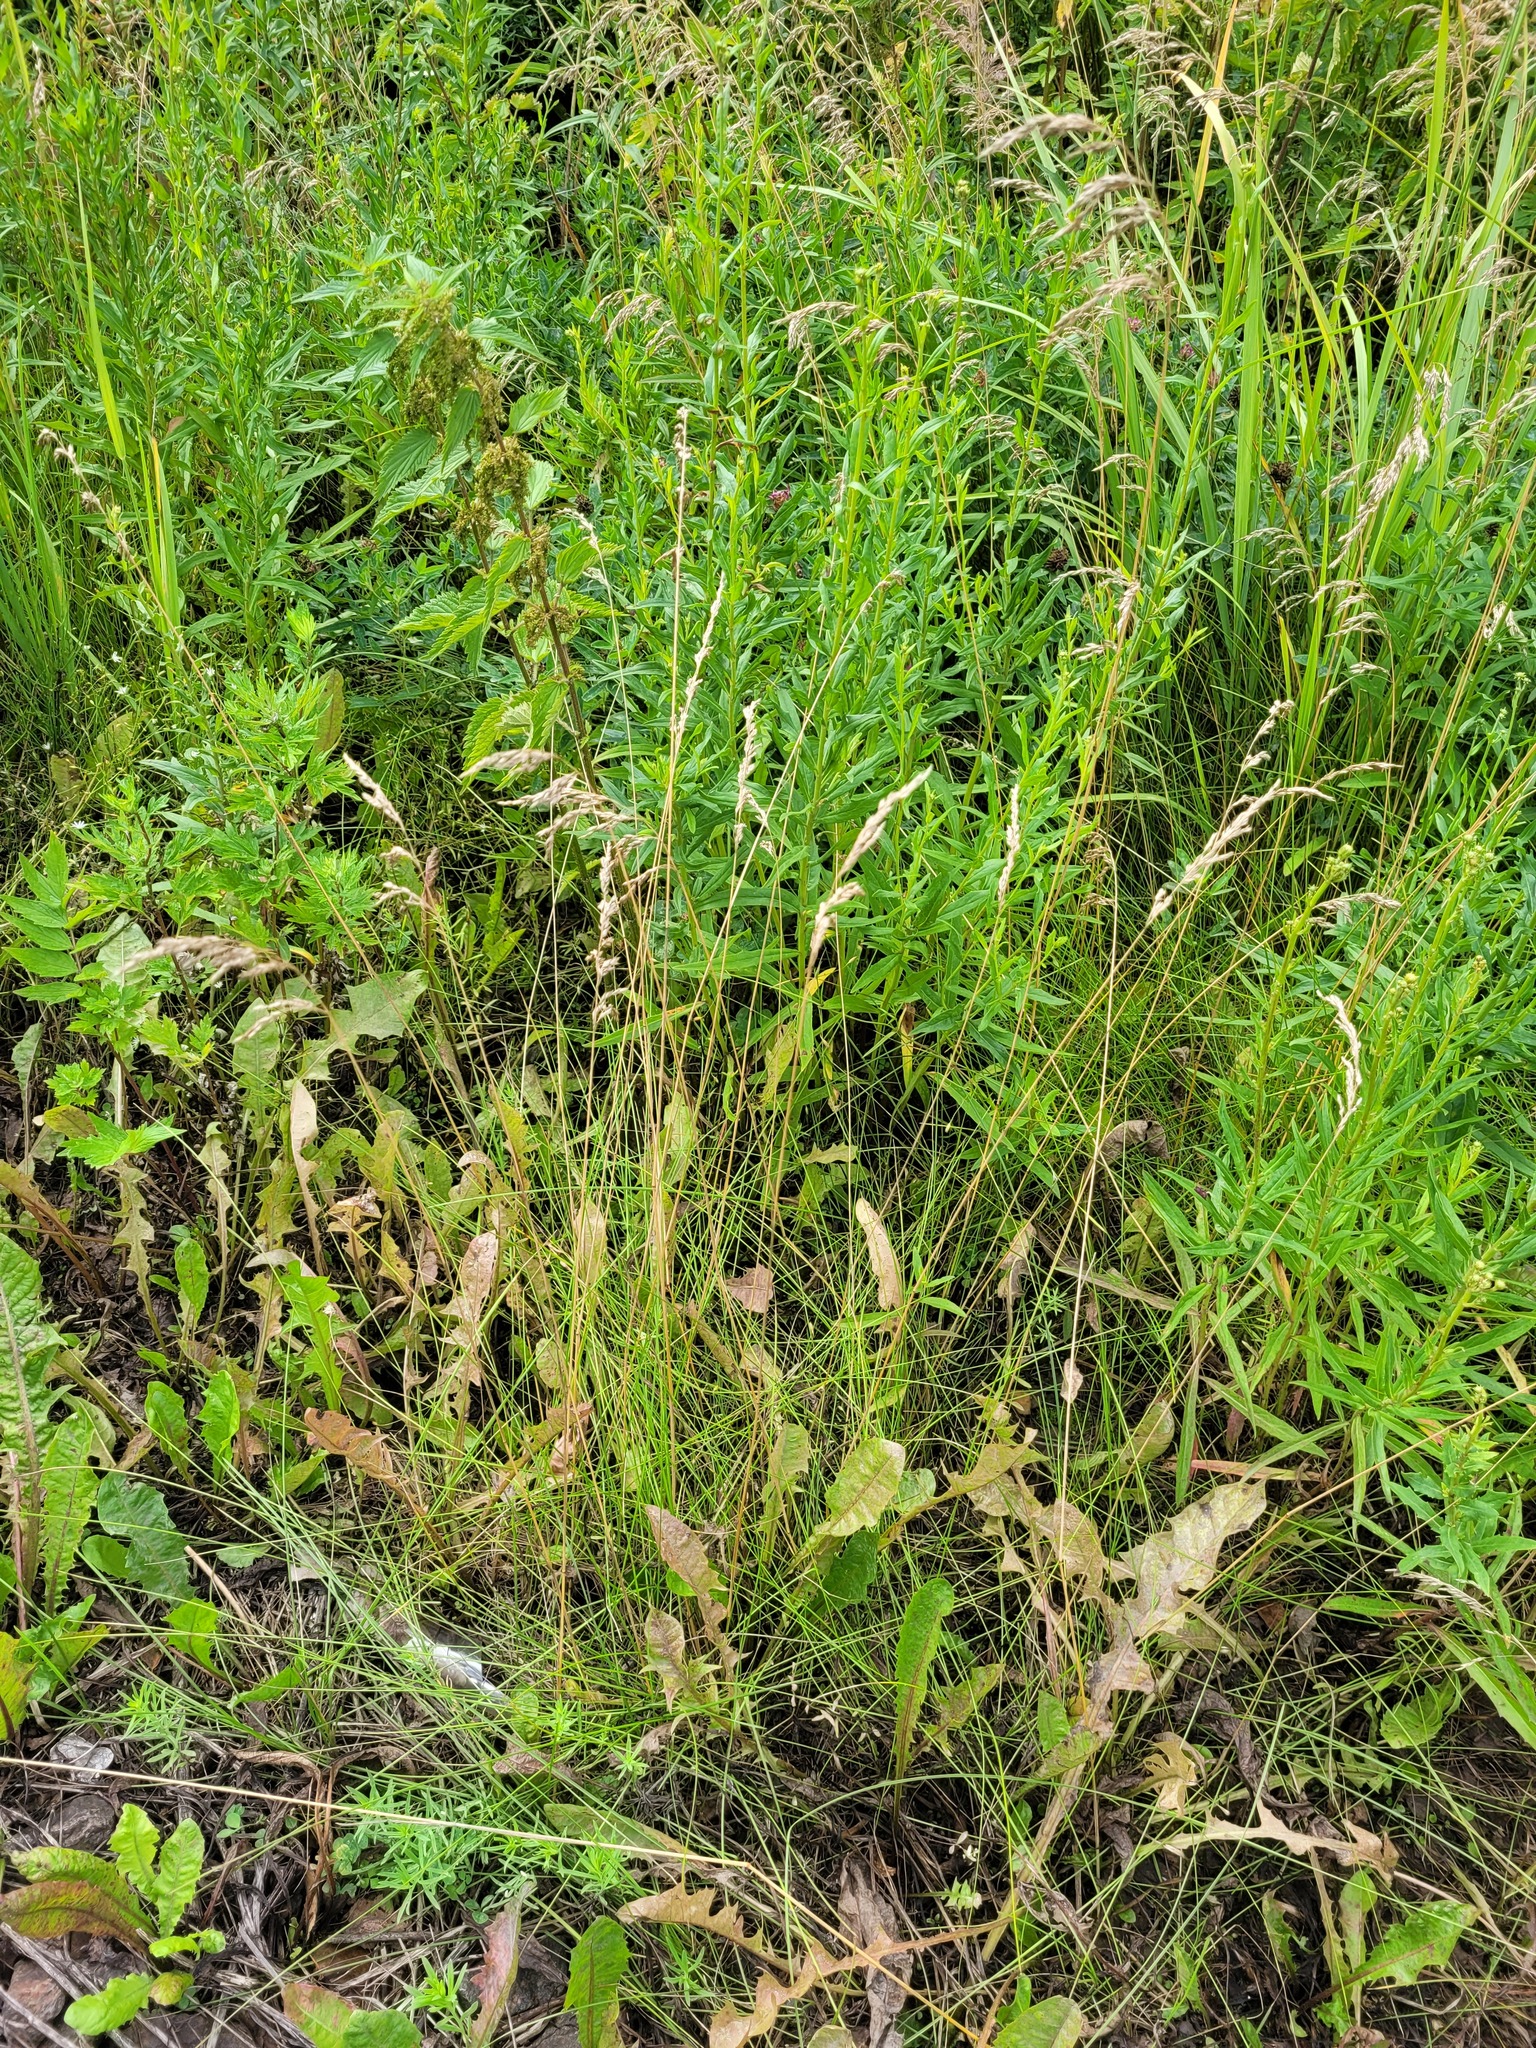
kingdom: Plantae
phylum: Tracheophyta
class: Liliopsida
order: Poales
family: Poaceae
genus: Poa
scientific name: Poa angustifolia
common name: Narrow-leaved meadow-grass
